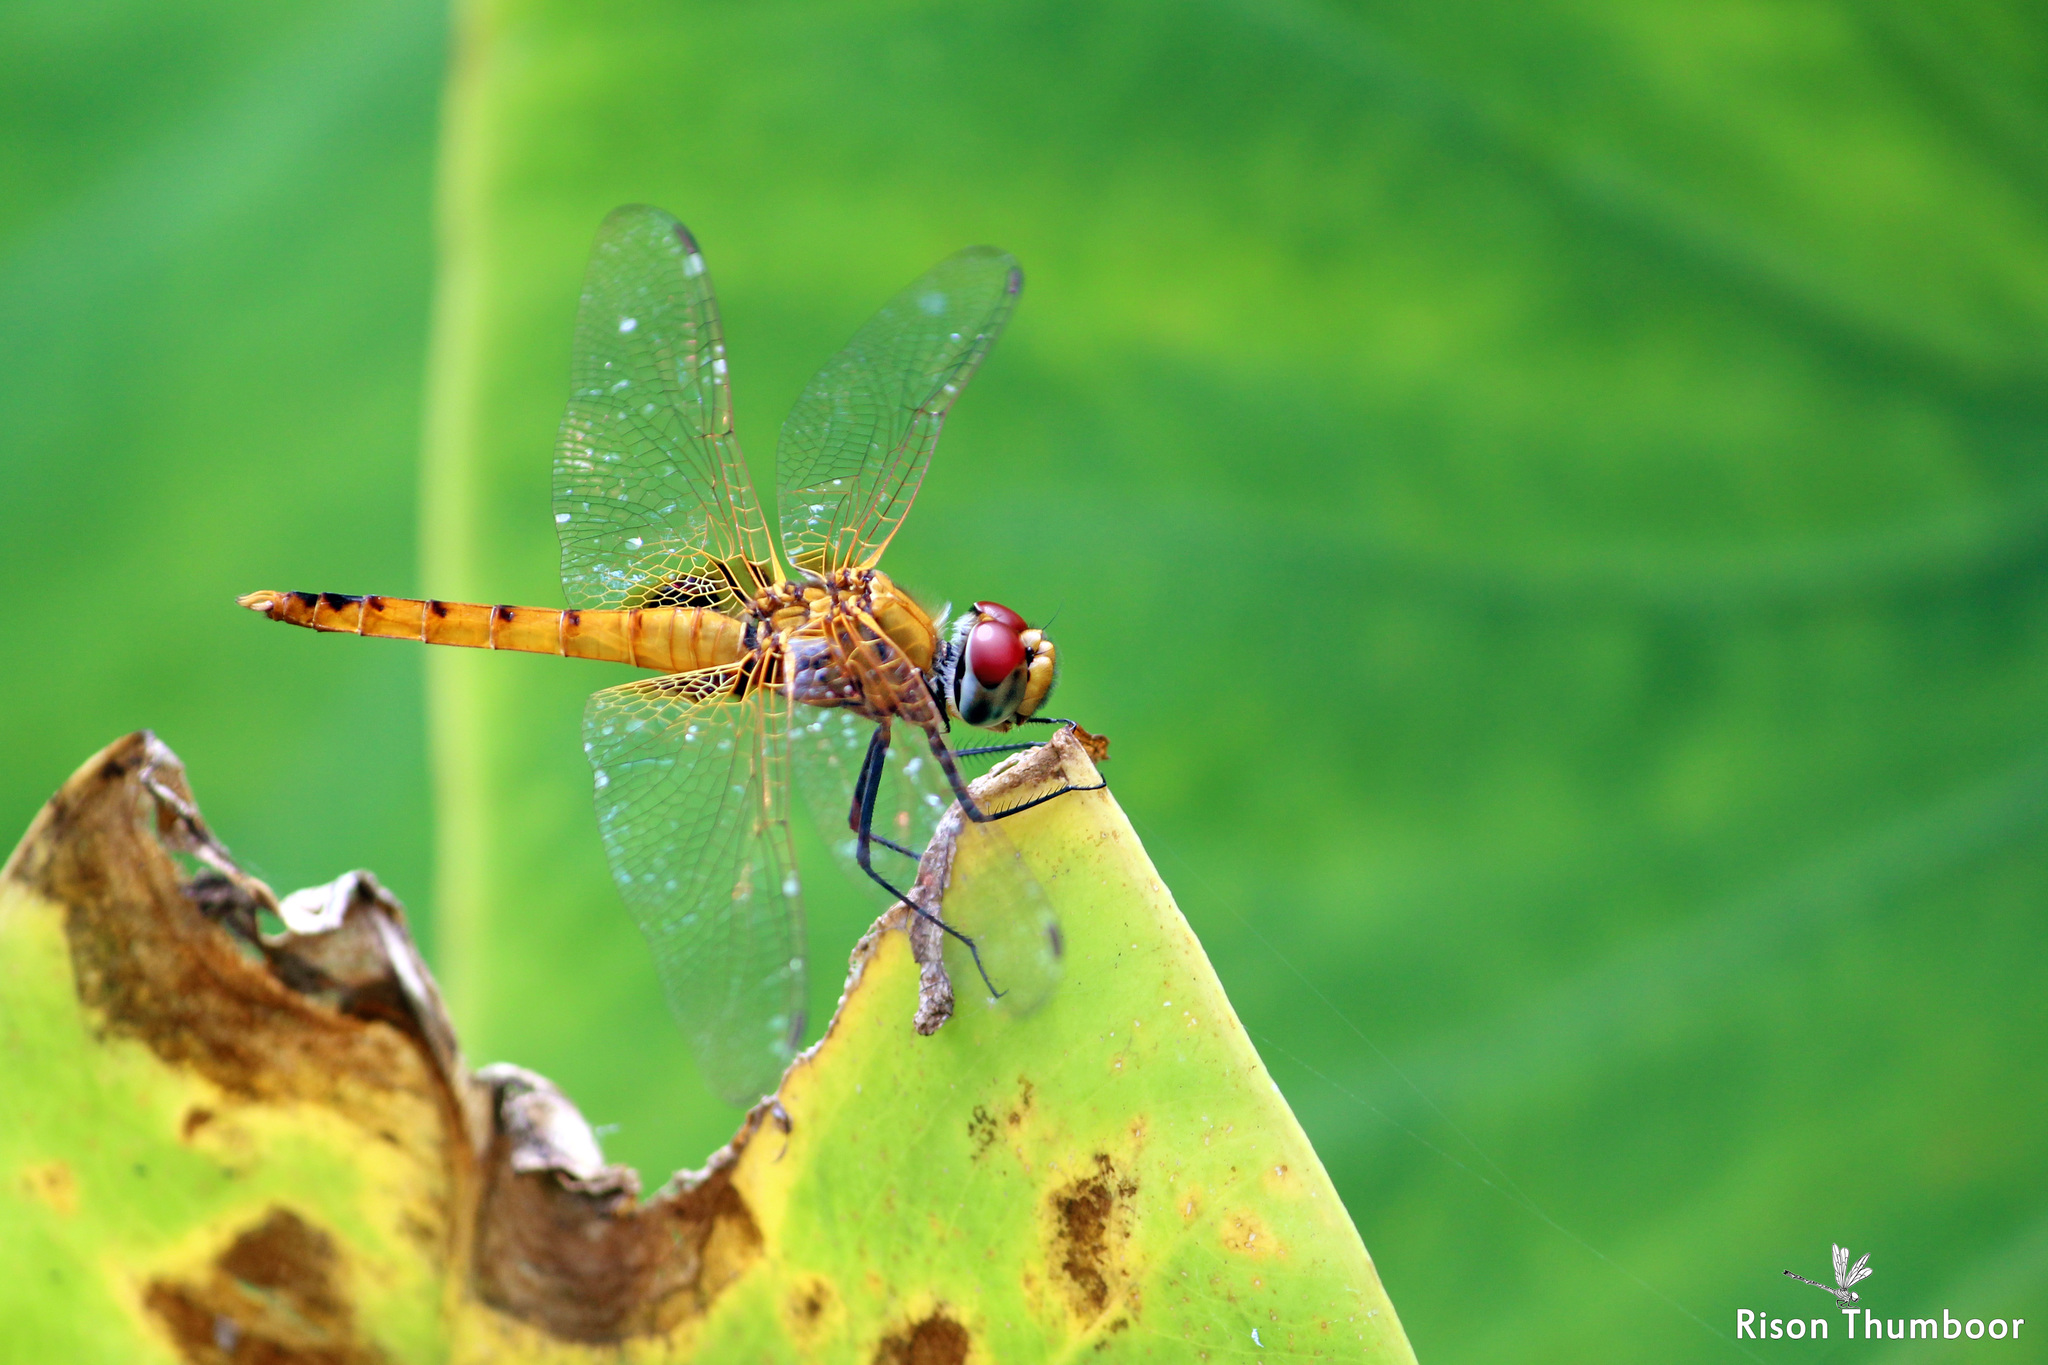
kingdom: Animalia
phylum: Arthropoda
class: Insecta
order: Odonata
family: Libellulidae
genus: Urothemis
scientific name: Urothemis signata
